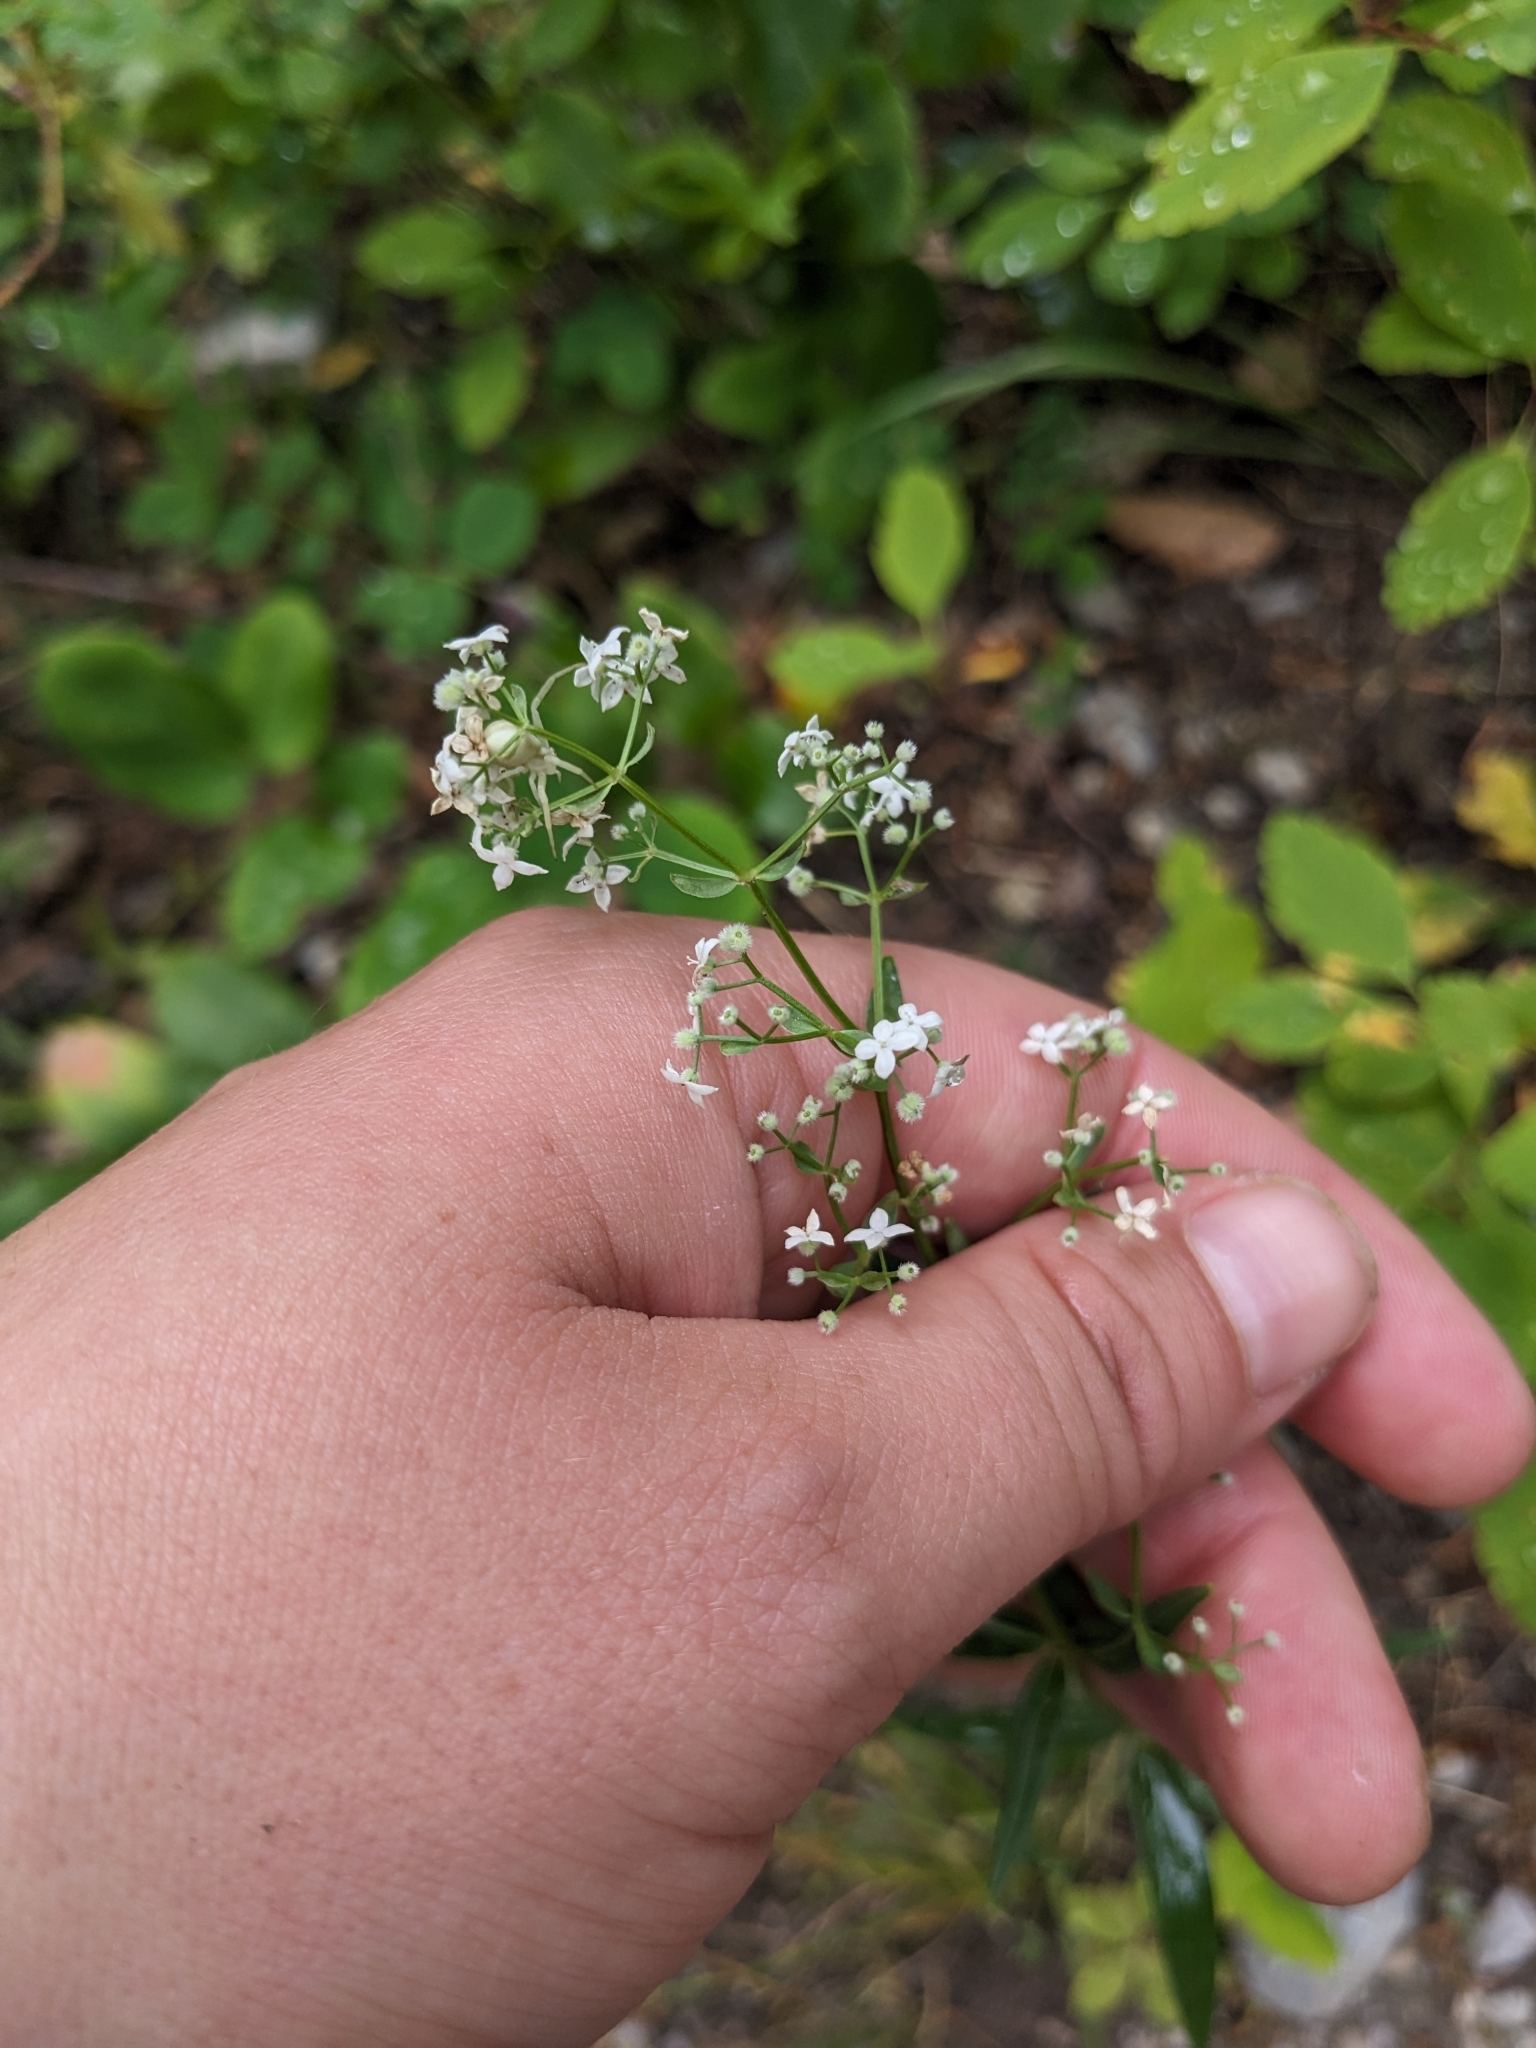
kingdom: Plantae
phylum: Tracheophyta
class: Magnoliopsida
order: Gentianales
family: Rubiaceae
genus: Galium
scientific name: Galium boreale
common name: Northern bedstraw
